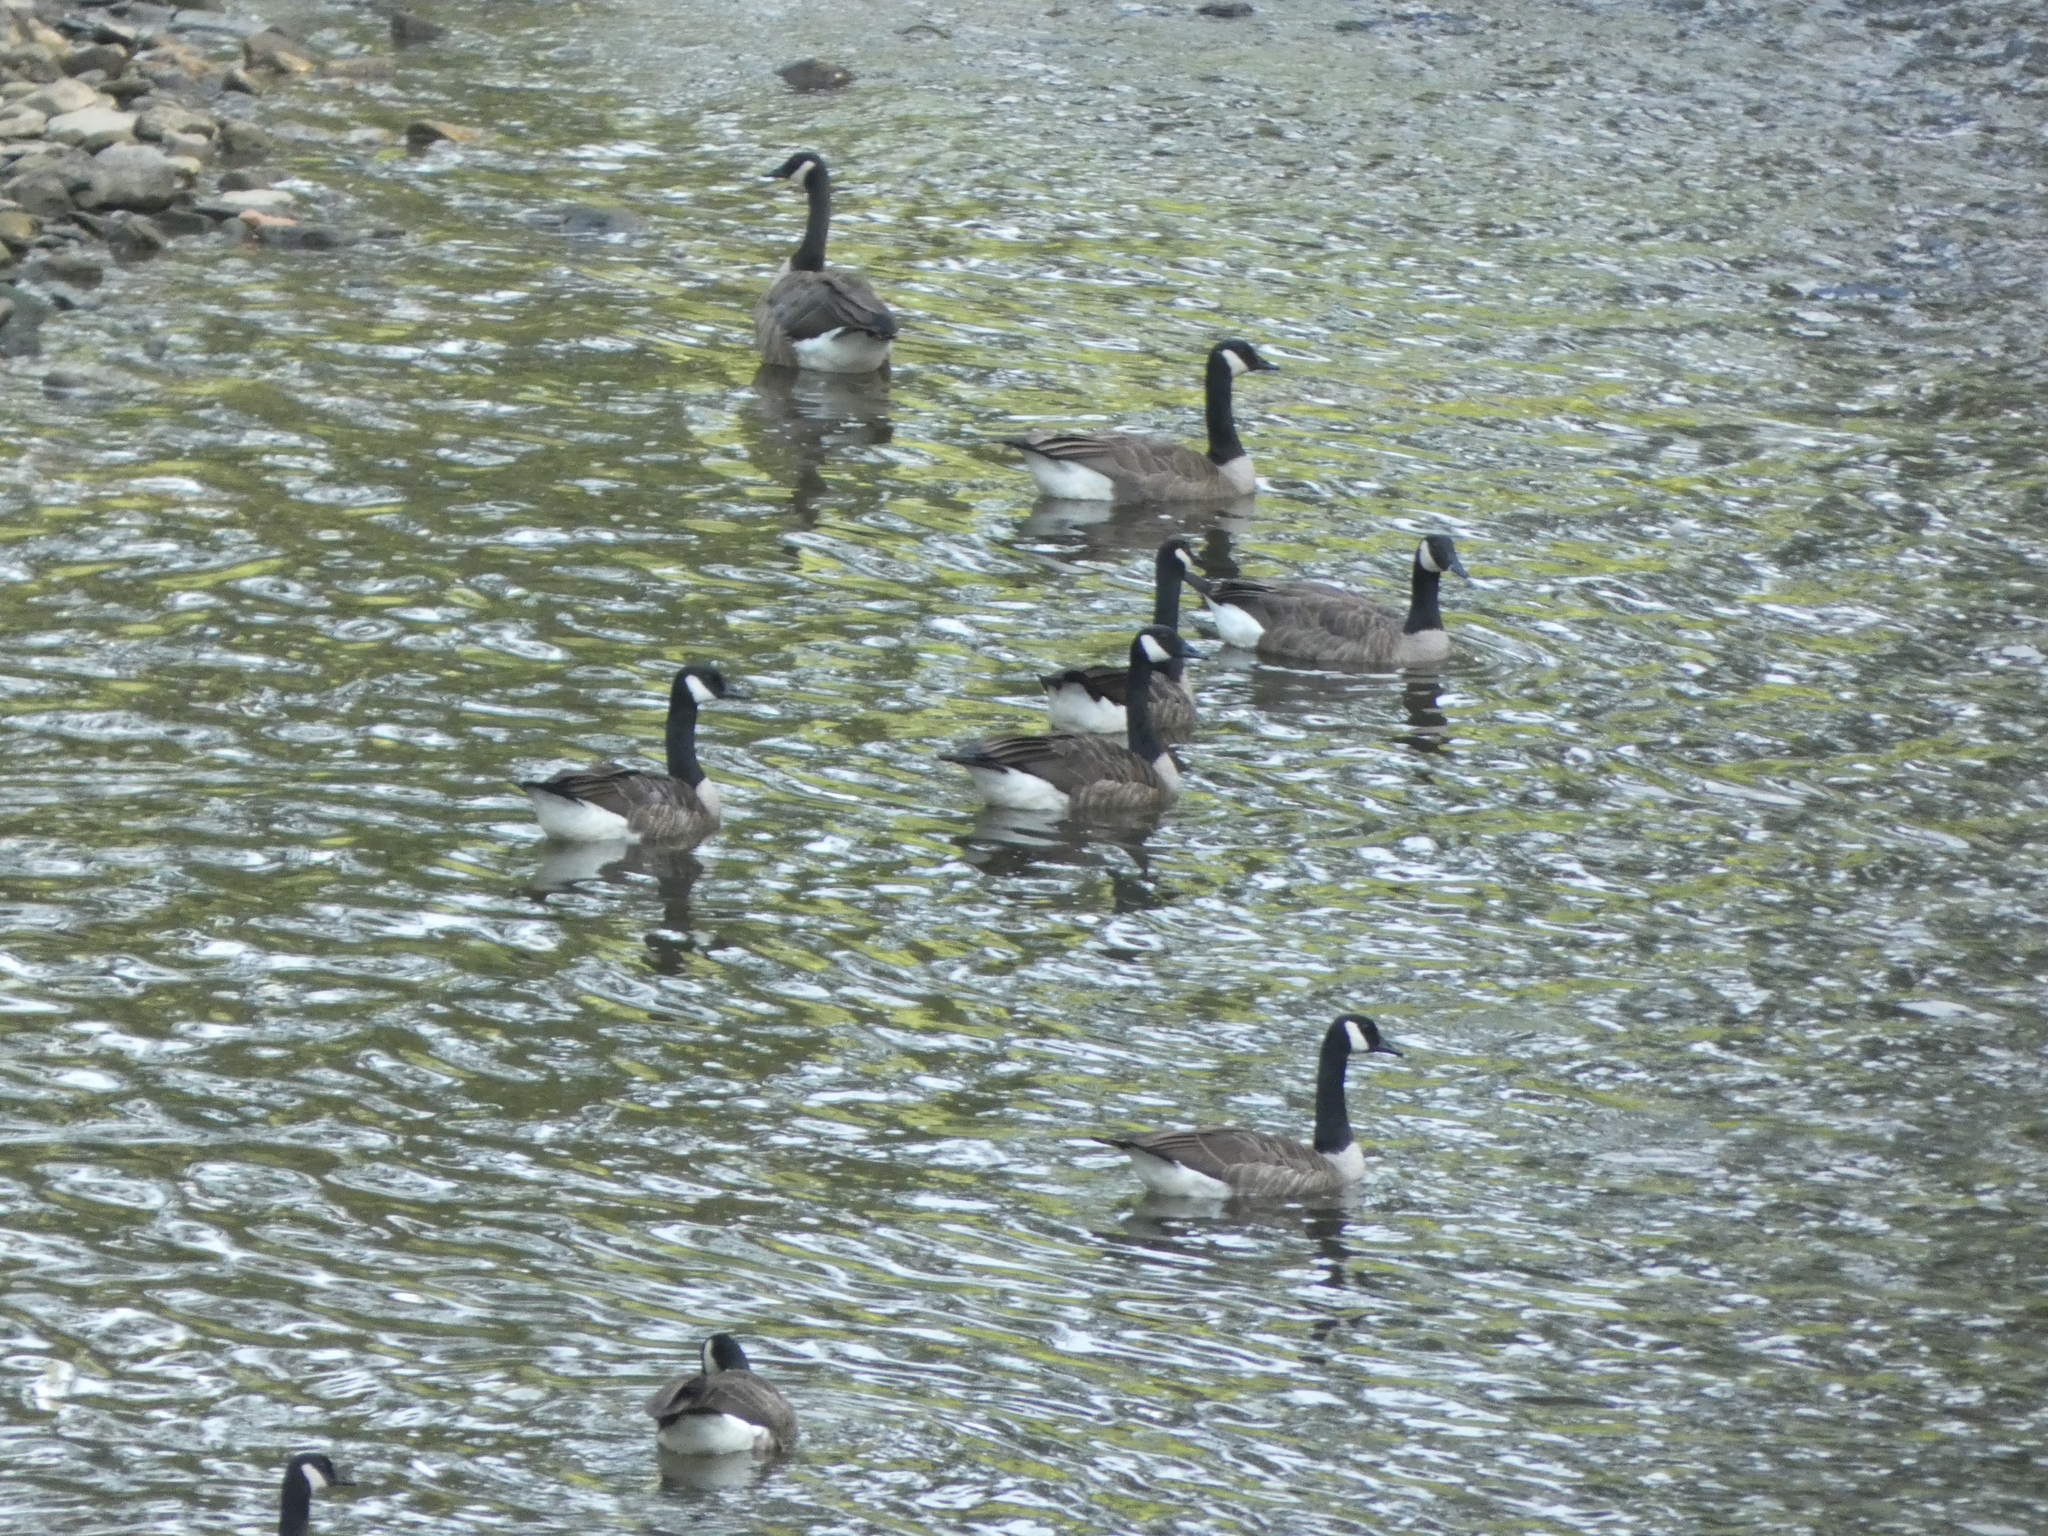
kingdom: Animalia
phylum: Chordata
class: Aves
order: Anseriformes
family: Anatidae
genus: Branta
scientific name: Branta canadensis
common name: Canada goose
